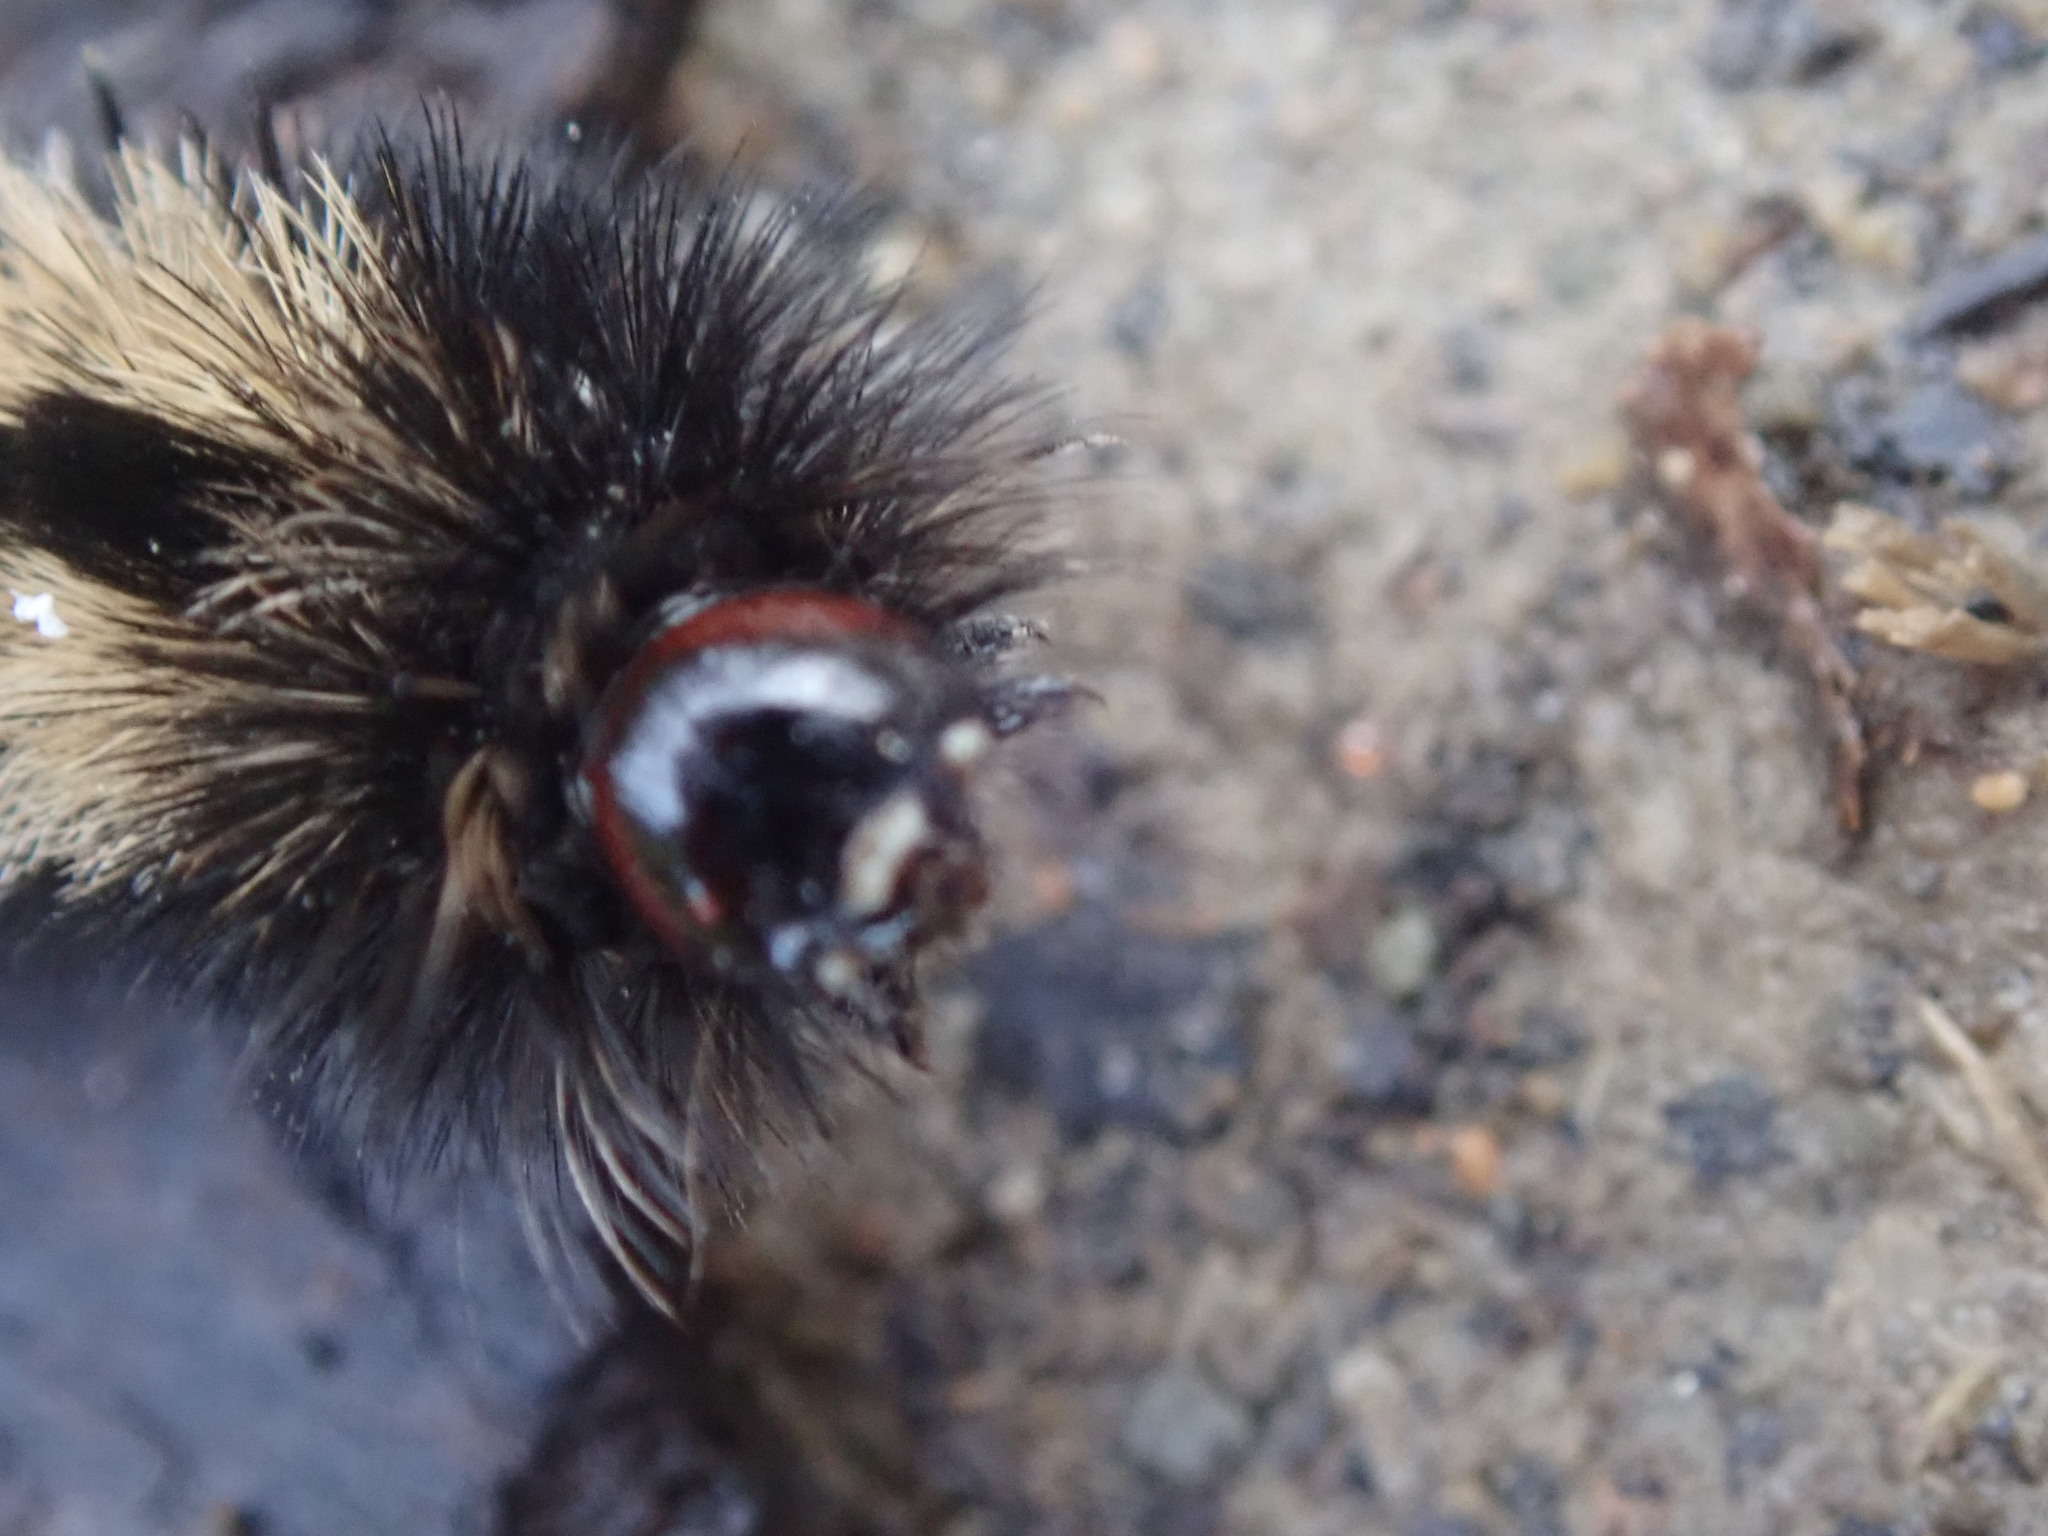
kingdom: Animalia
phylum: Arthropoda
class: Insecta
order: Lepidoptera
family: Erebidae
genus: Ctenucha
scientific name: Ctenucha virginica
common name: Virginia ctenucha moth
